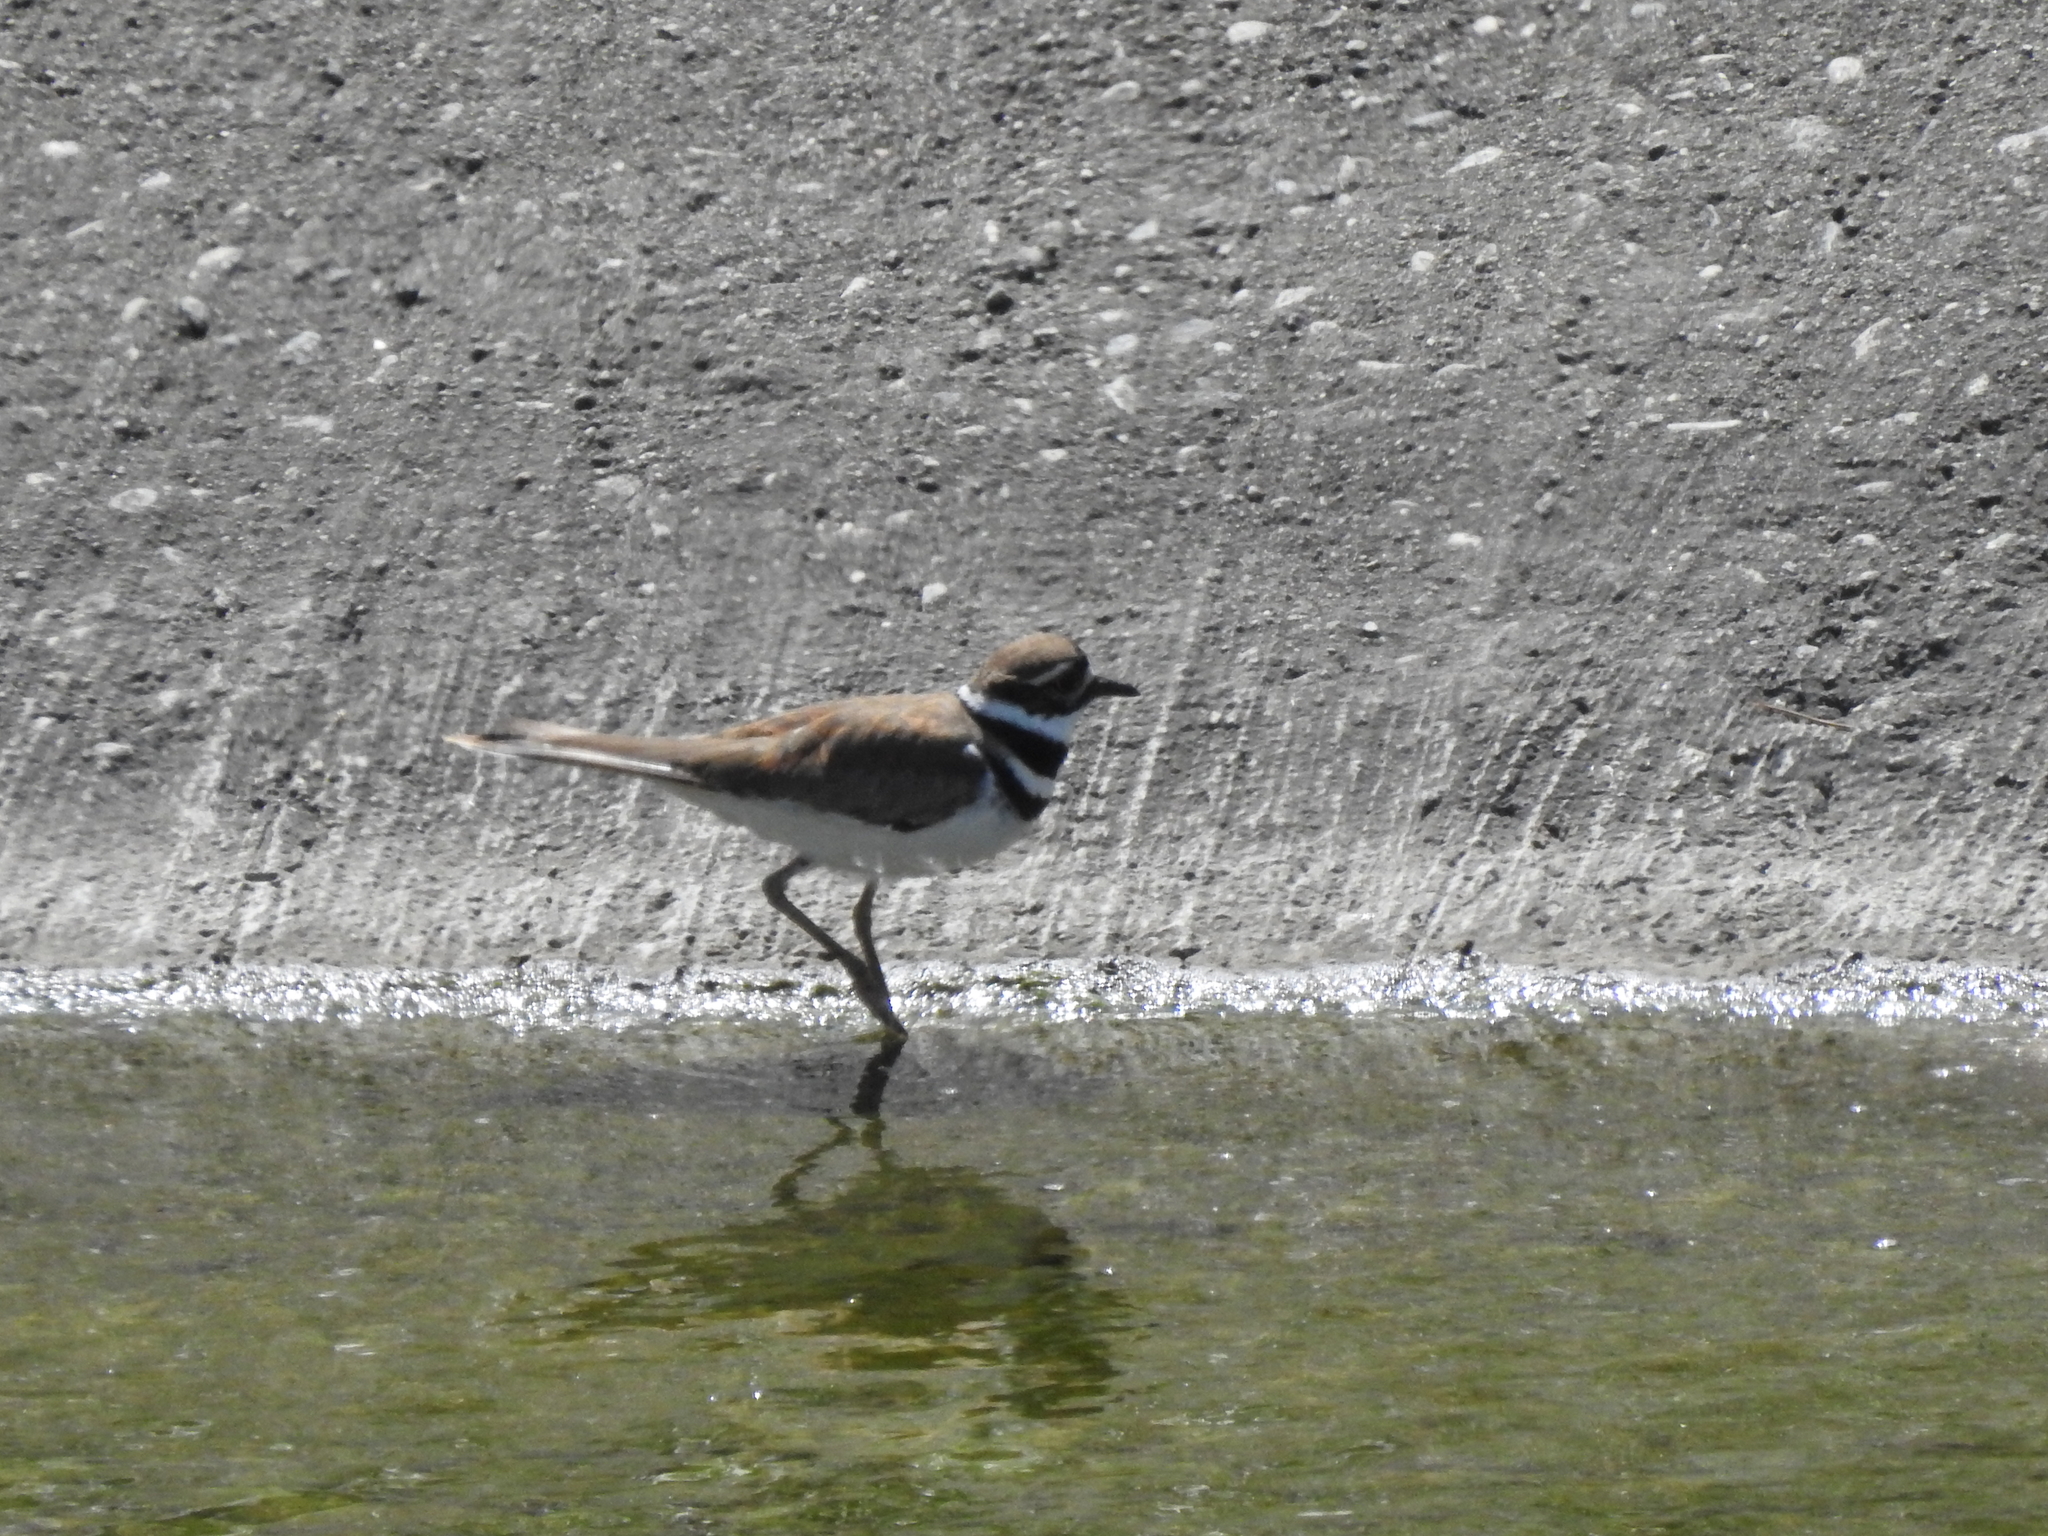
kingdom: Animalia
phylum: Chordata
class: Aves
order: Charadriiformes
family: Charadriidae
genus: Charadrius
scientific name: Charadrius vociferus
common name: Killdeer
